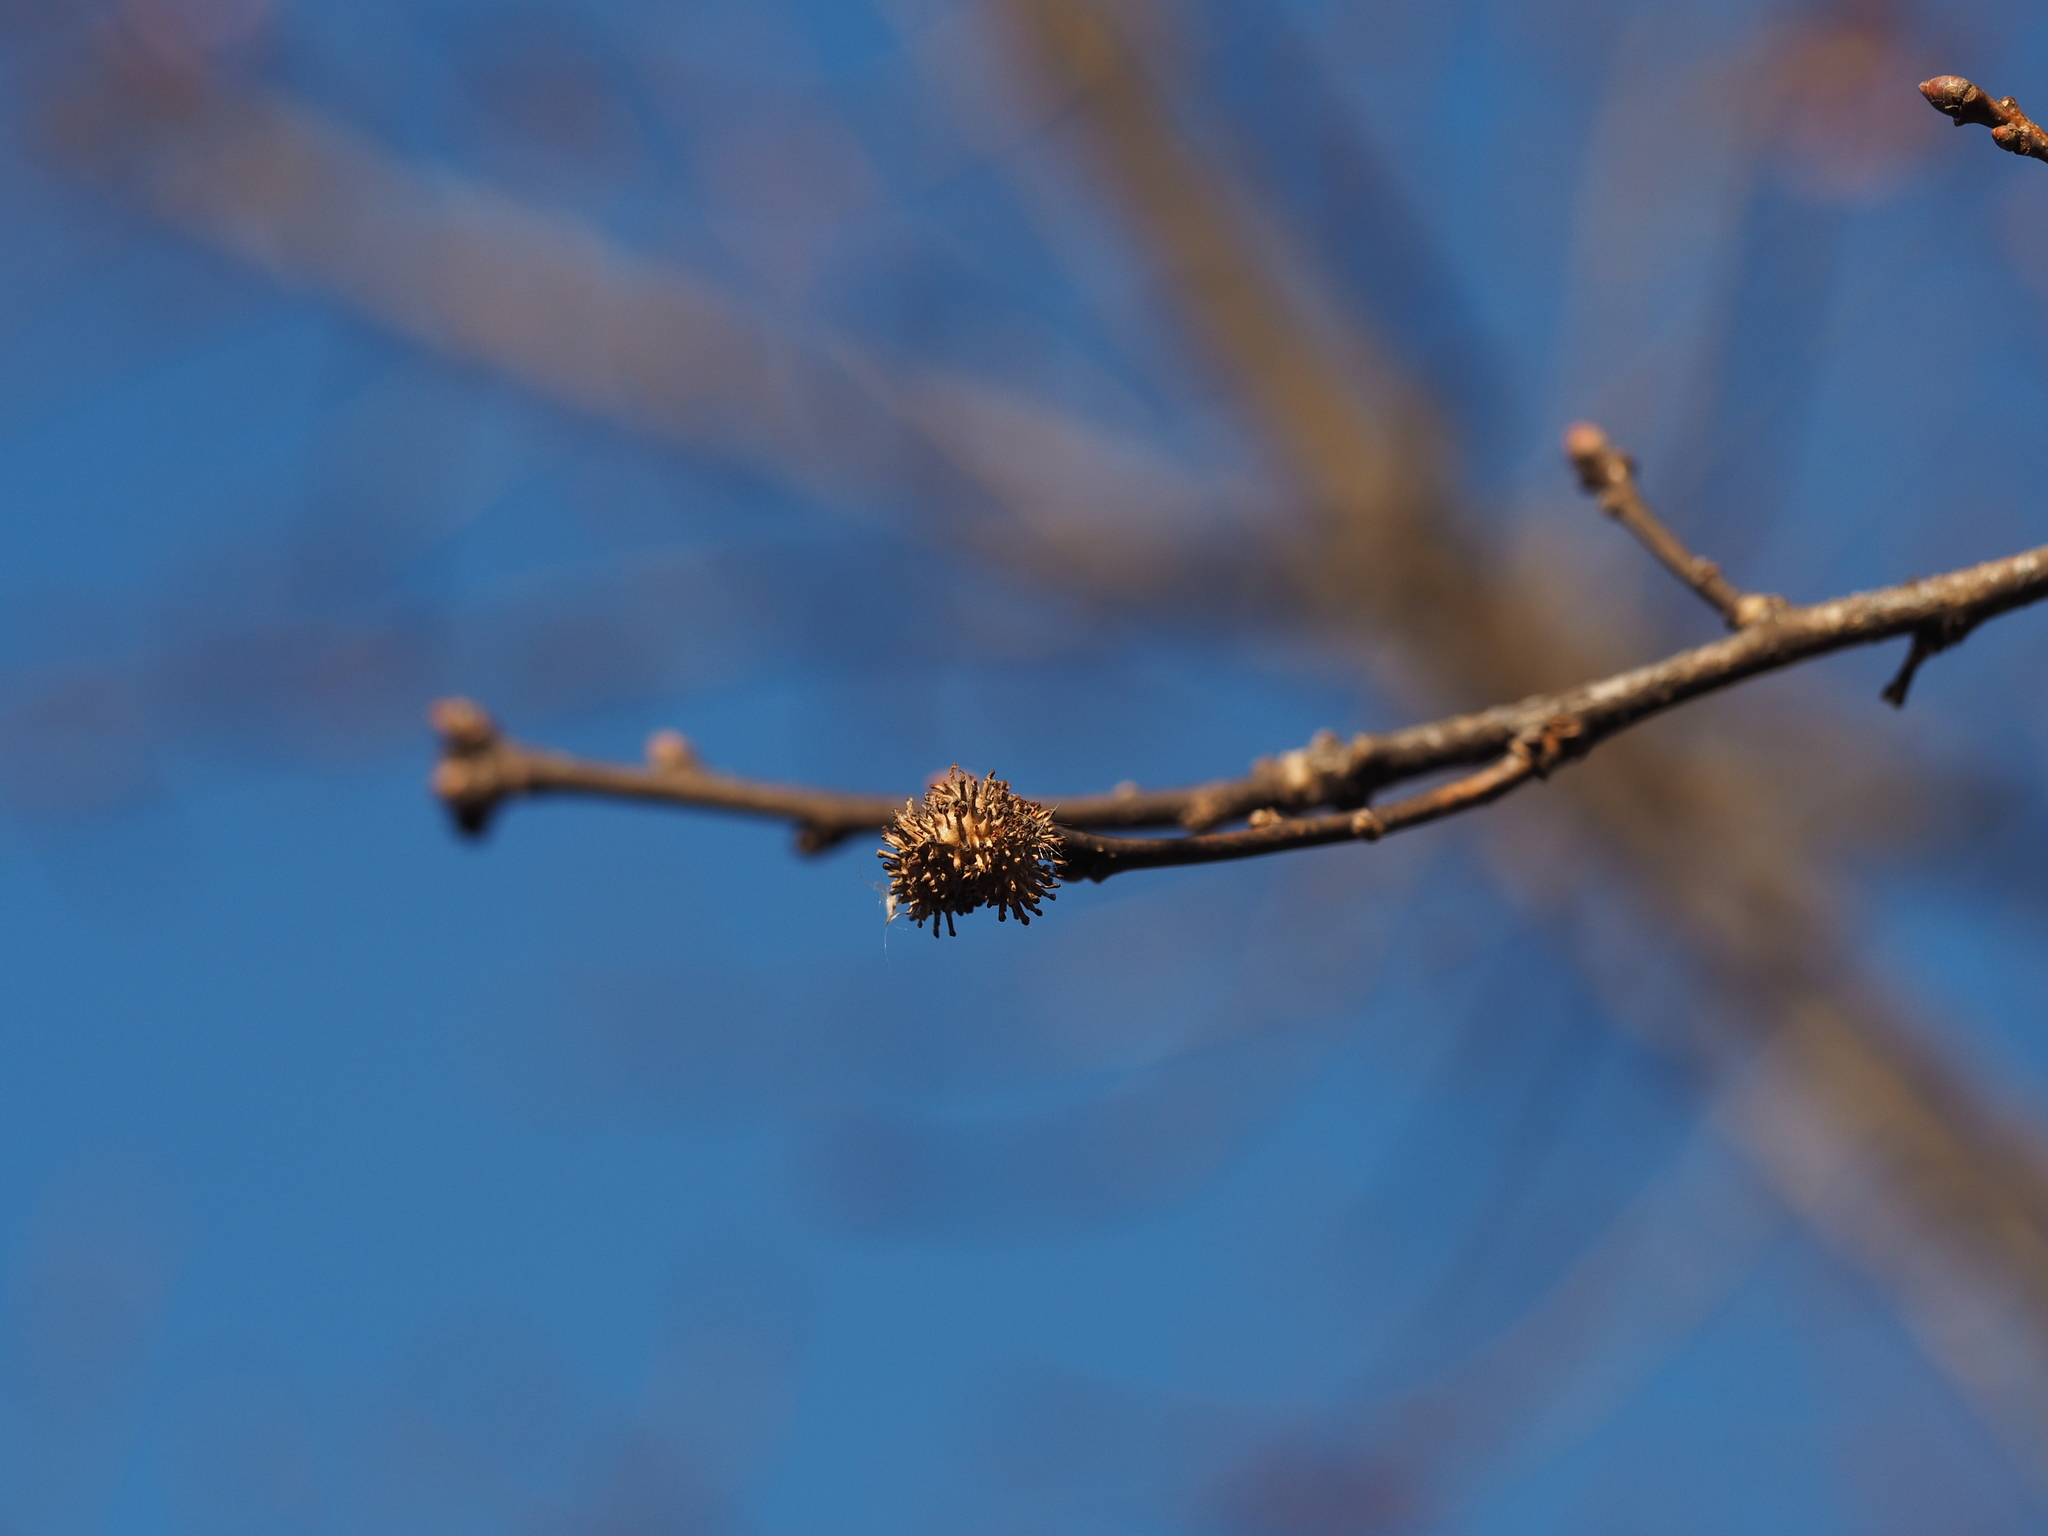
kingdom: Animalia
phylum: Arthropoda
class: Insecta
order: Hymenoptera
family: Cynipidae
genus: Andricus
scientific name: Andricus lucidus
